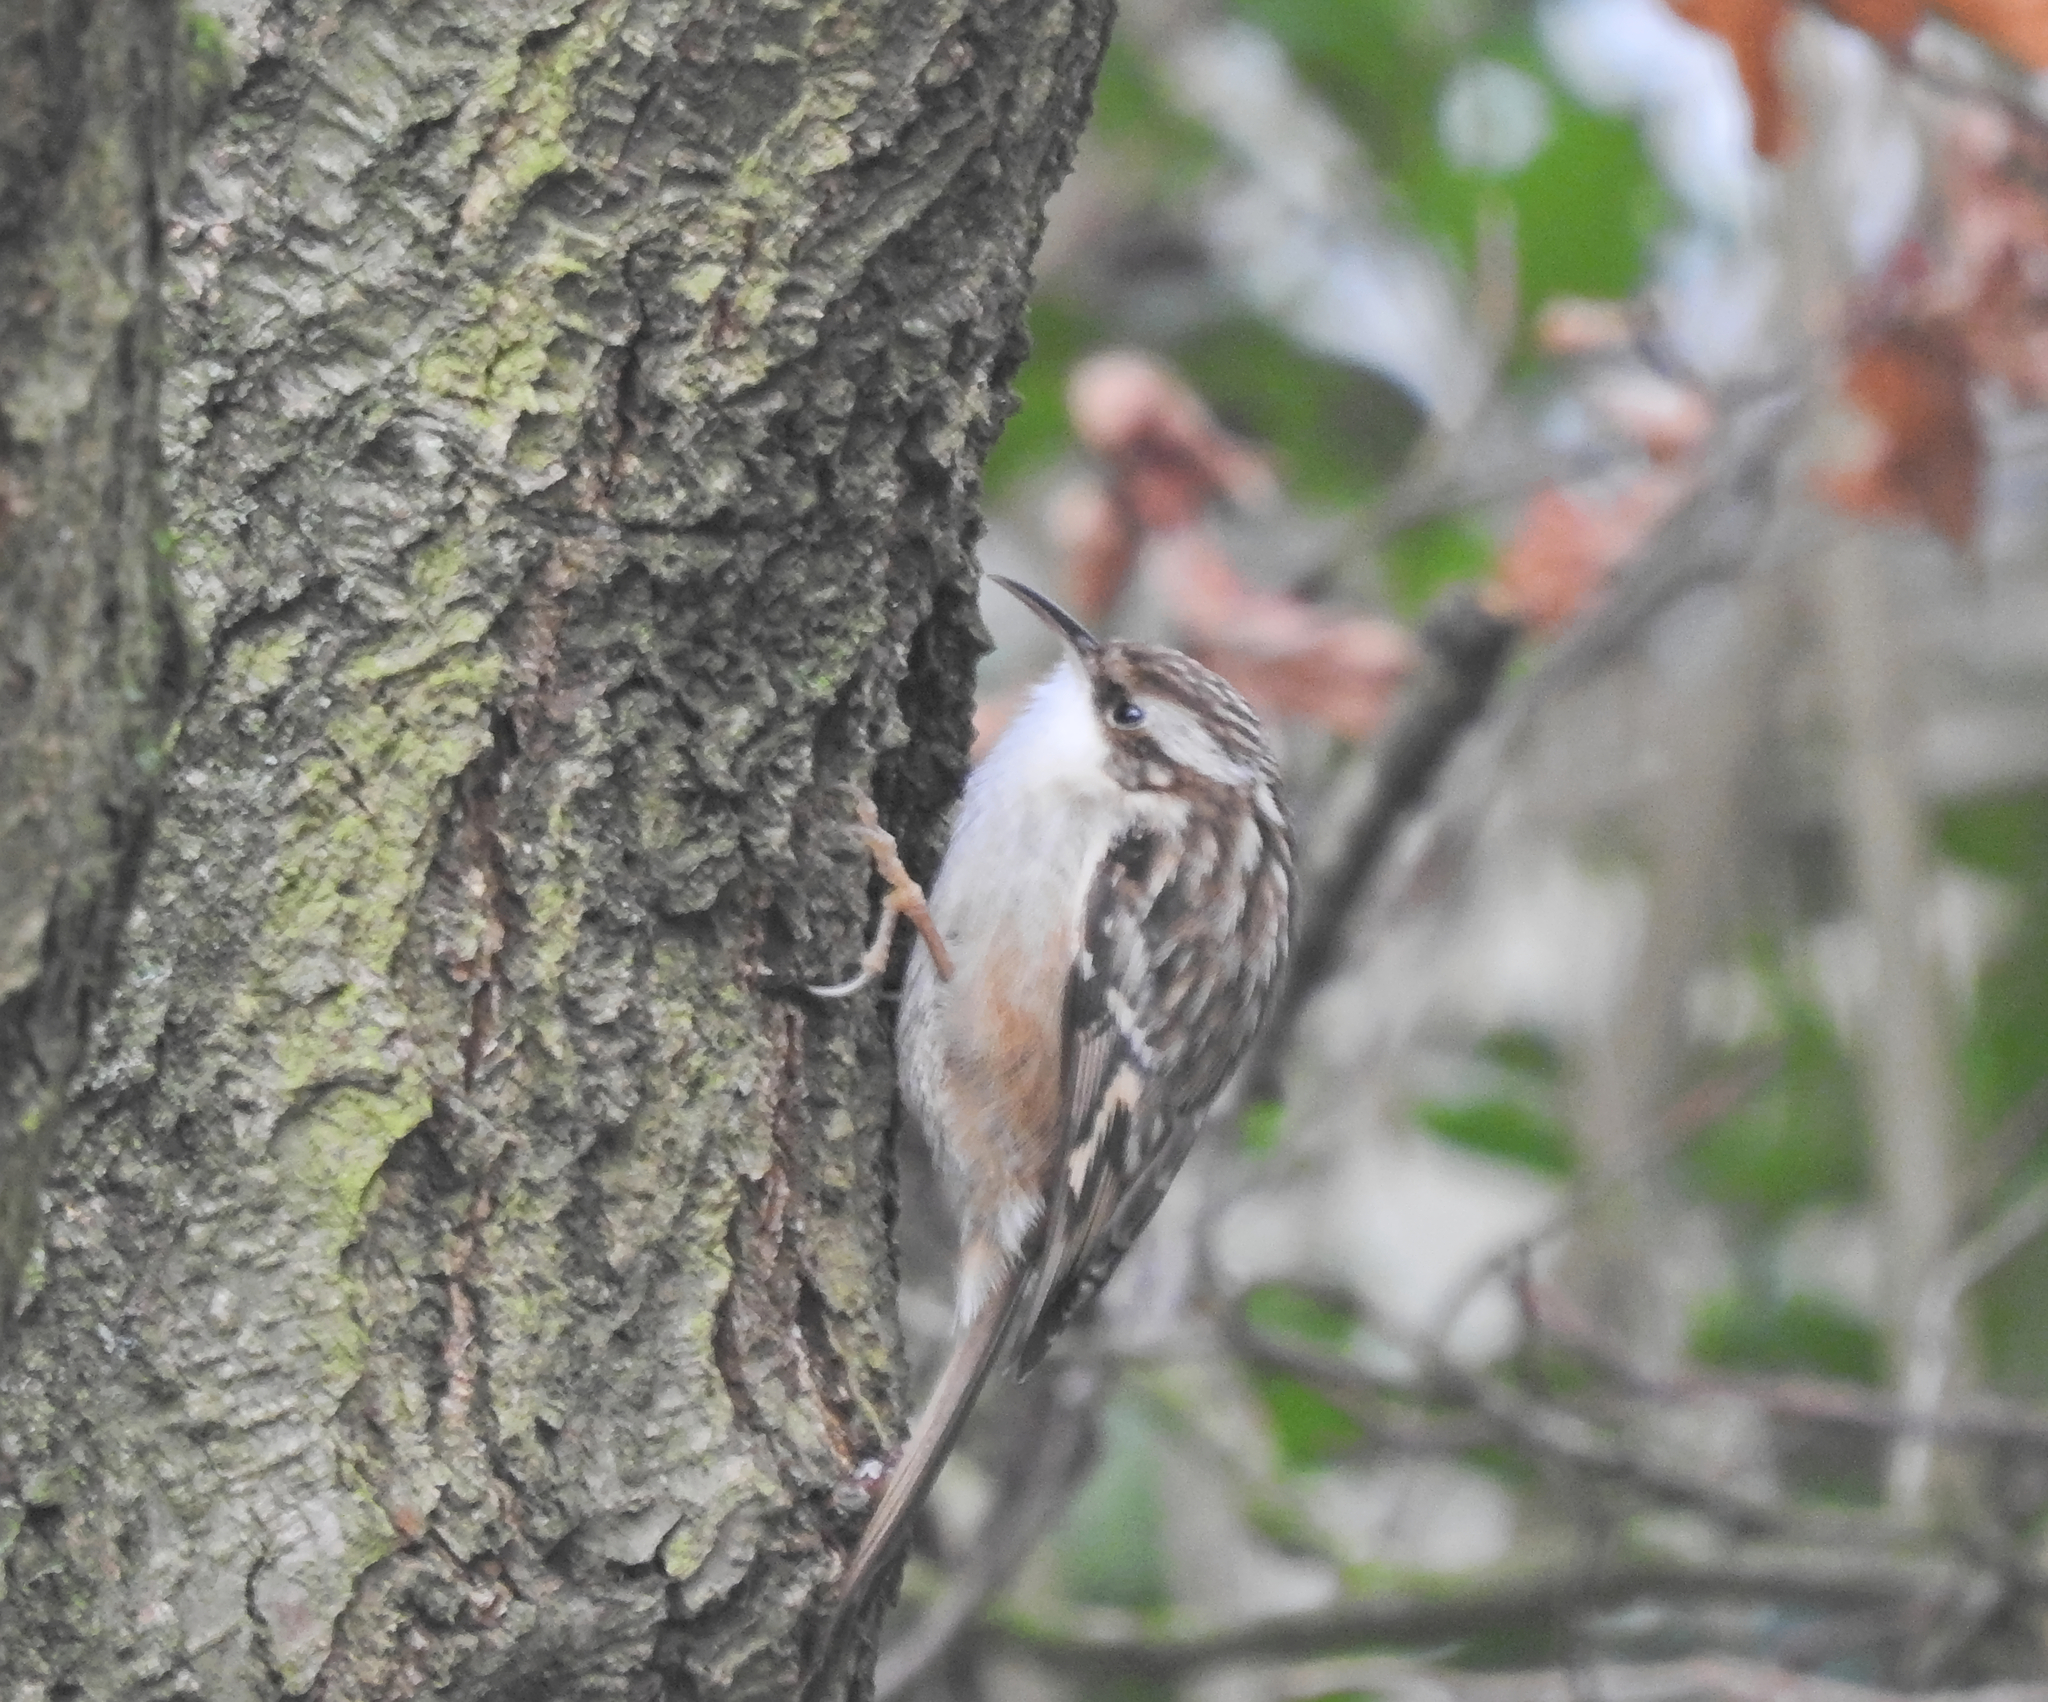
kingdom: Animalia
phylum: Chordata
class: Aves
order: Passeriformes
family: Certhiidae
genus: Certhia
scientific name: Certhia brachydactyla
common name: Short-toed treecreeper
